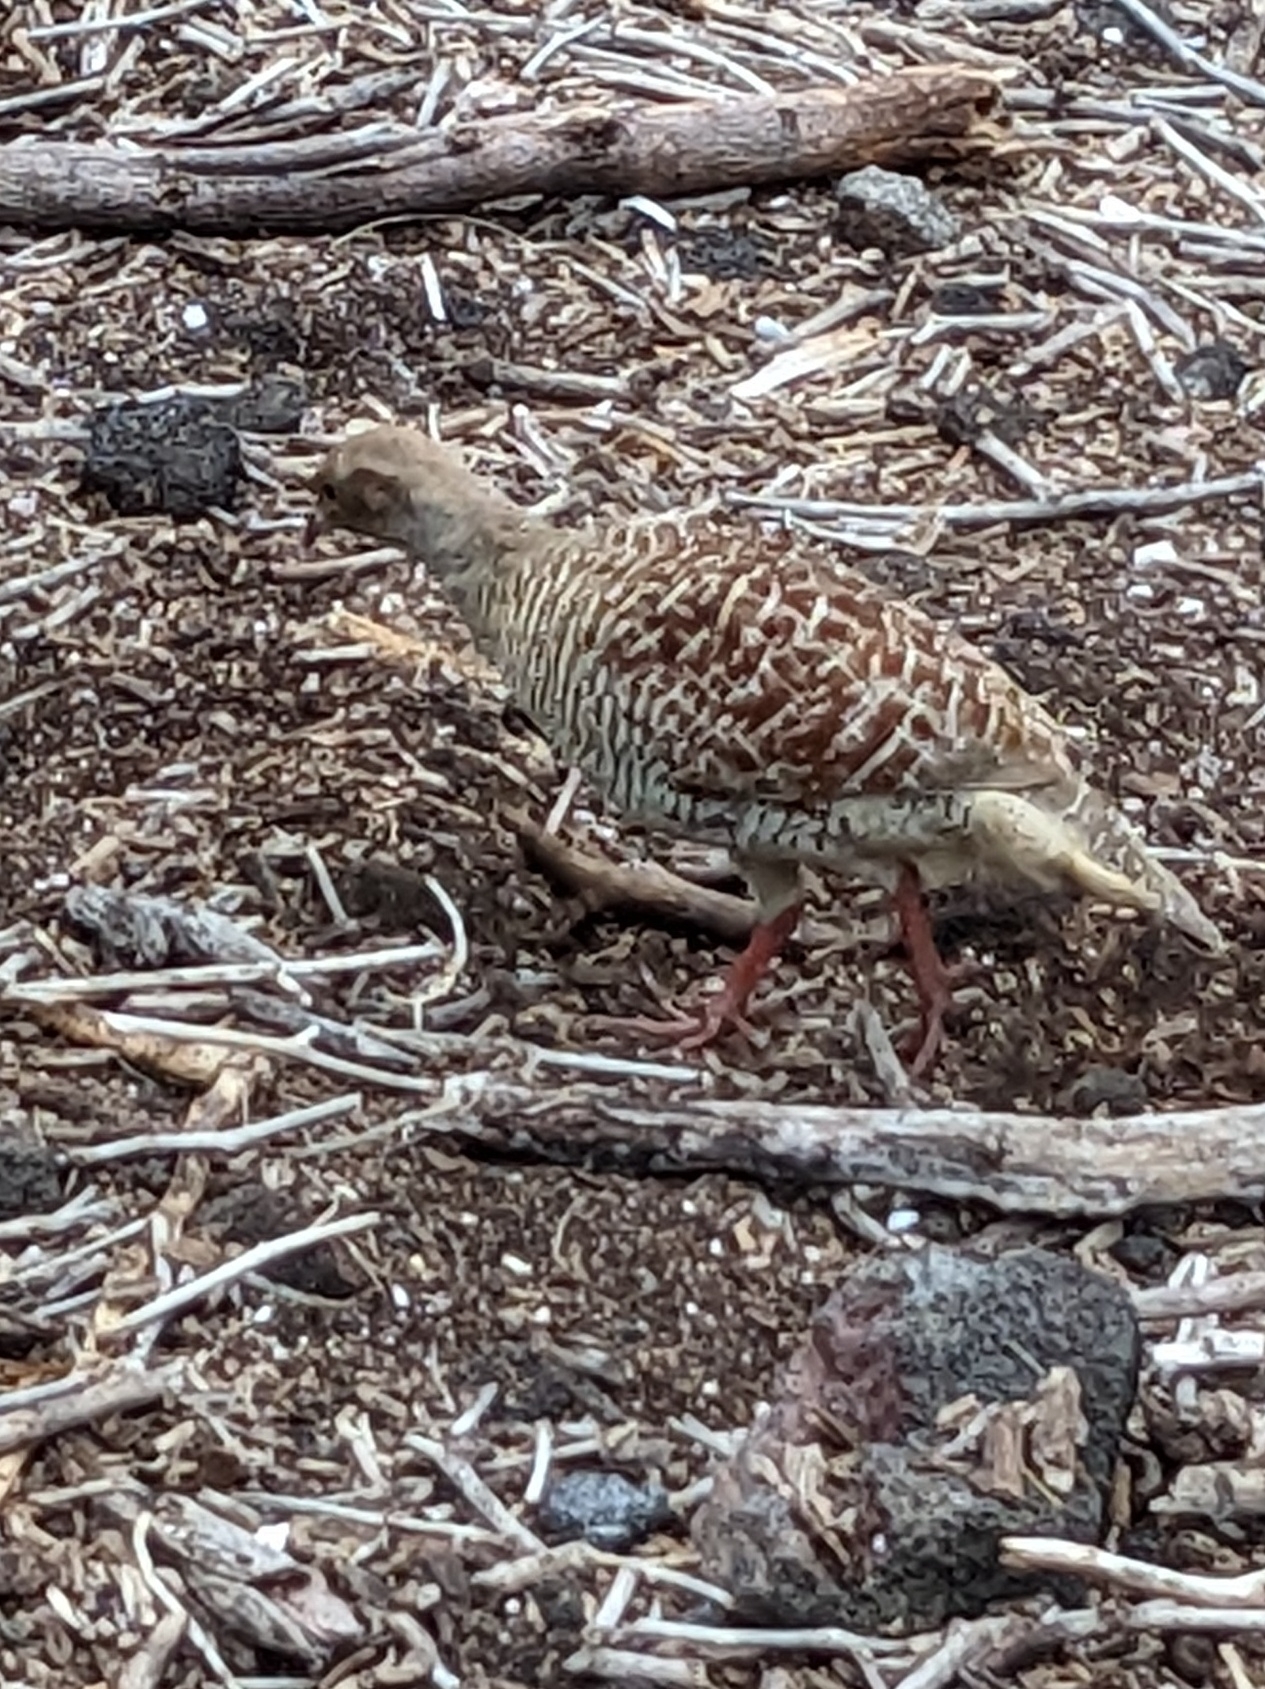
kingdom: Animalia
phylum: Chordata
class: Aves
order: Galliformes
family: Phasianidae
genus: Ortygornis
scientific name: Ortygornis pondicerianus
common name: Grey francolin
